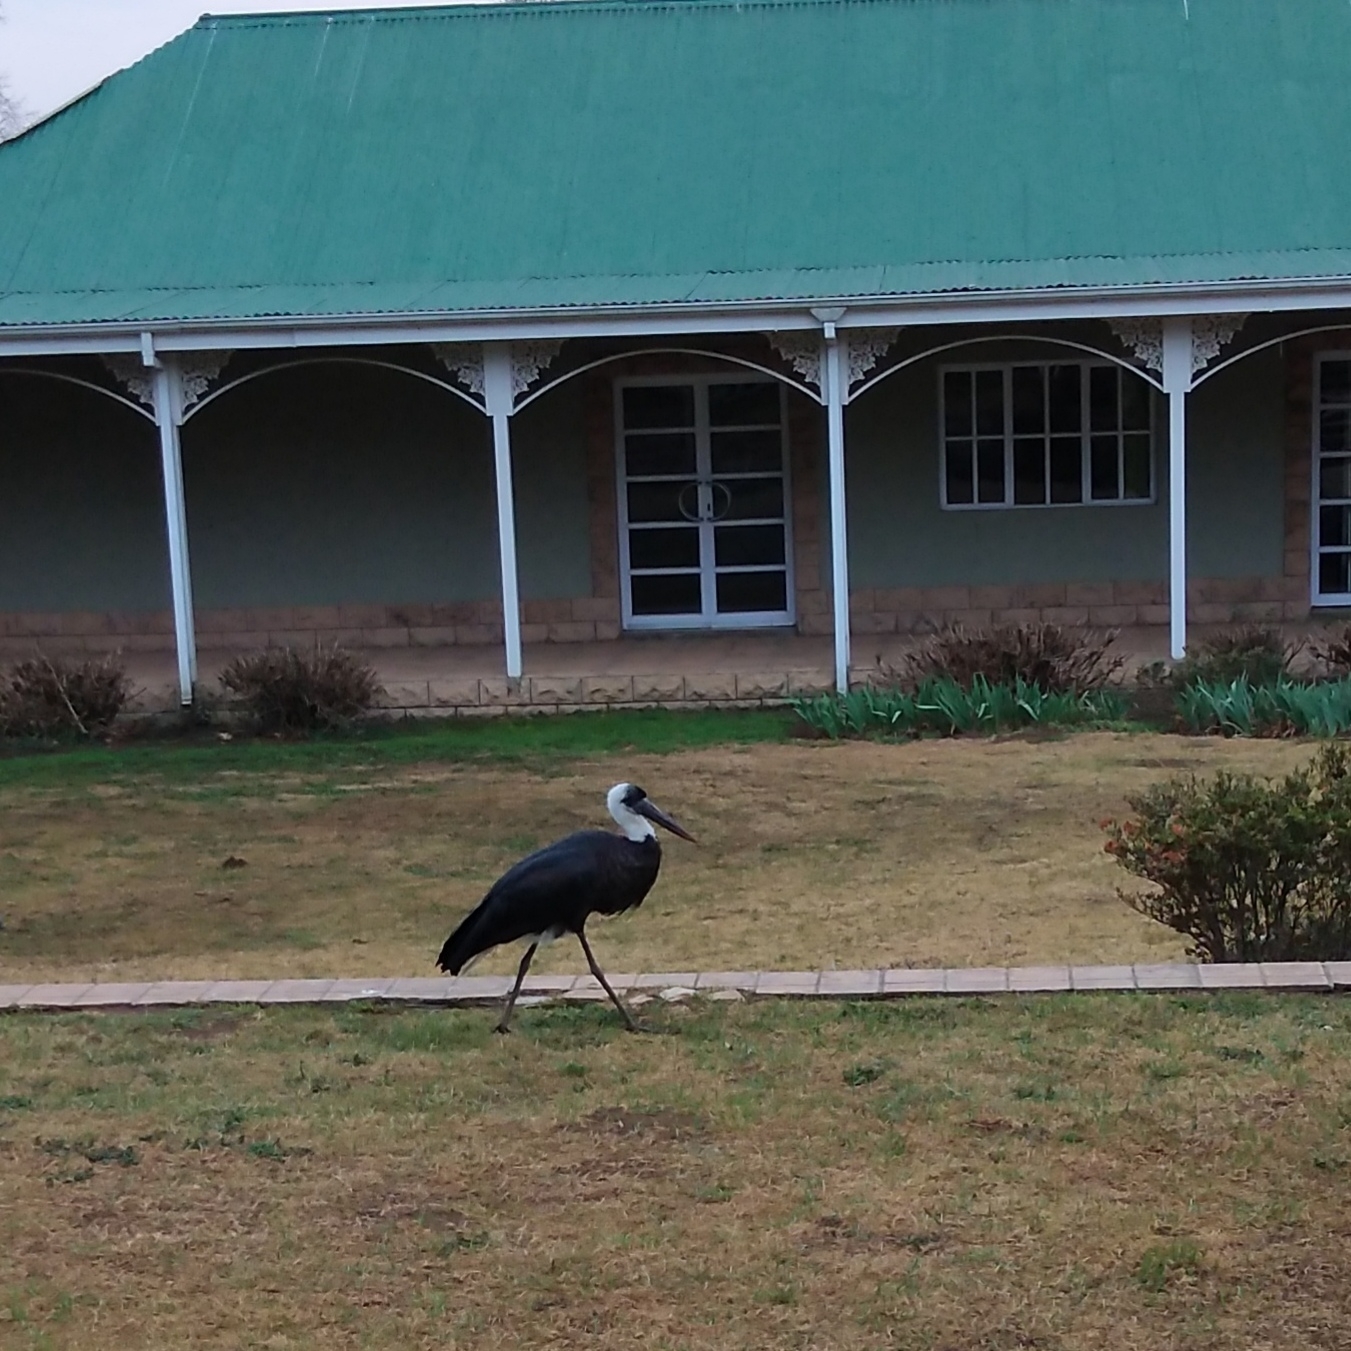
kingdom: Animalia
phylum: Chordata
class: Aves
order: Ciconiiformes
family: Ciconiidae
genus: Ciconia
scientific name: Ciconia microscelis
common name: African woollyneck
